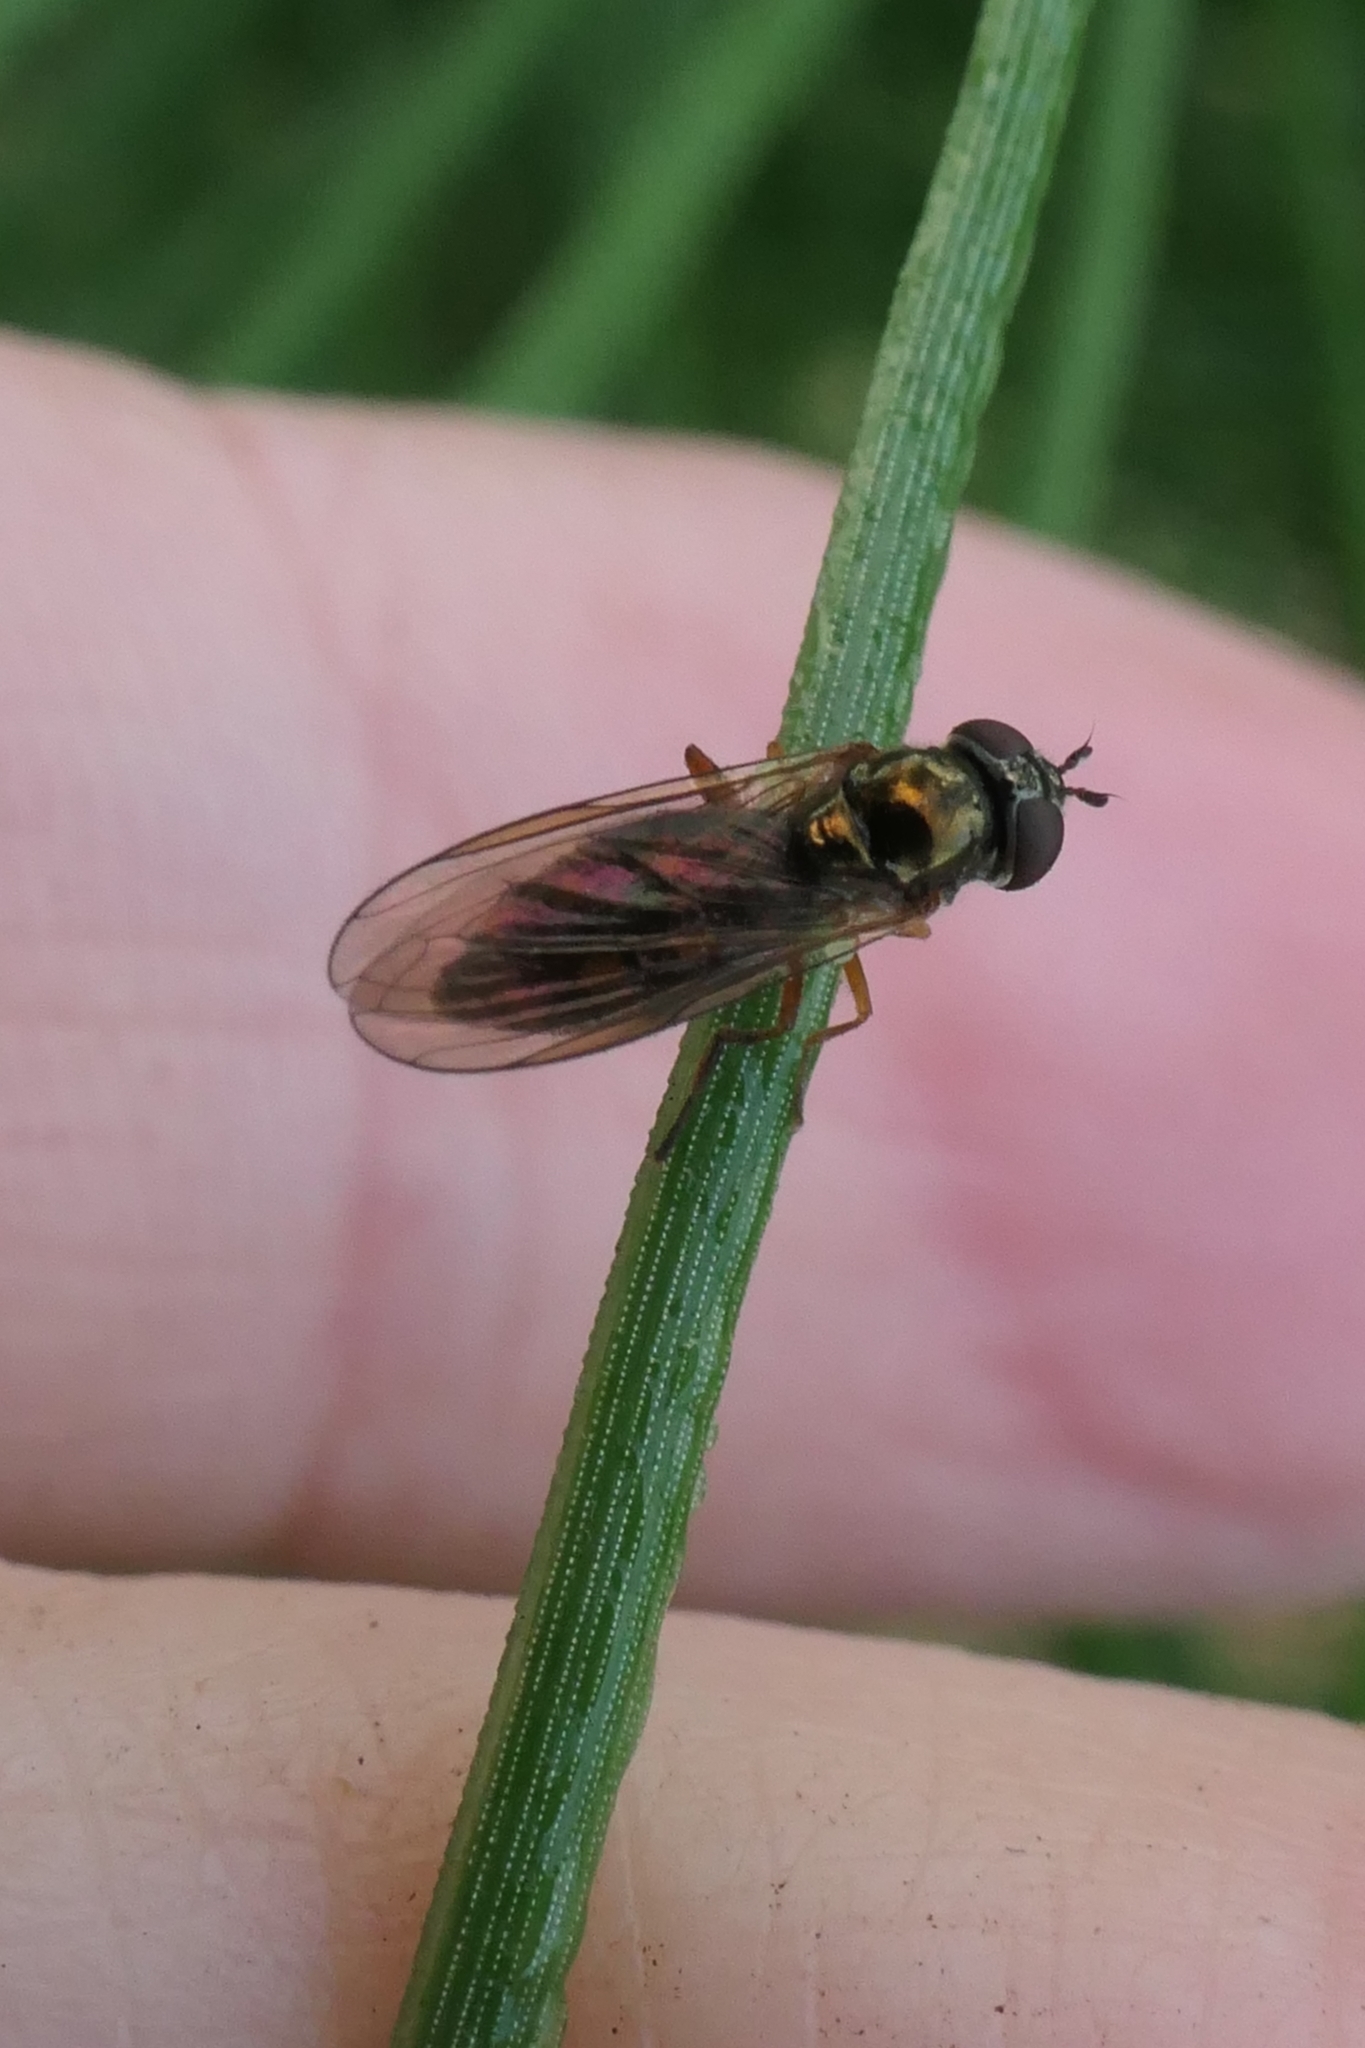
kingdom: Animalia
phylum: Arthropoda
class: Insecta
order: Diptera
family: Syrphidae
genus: Melanostoma
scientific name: Melanostoma fasciatum
